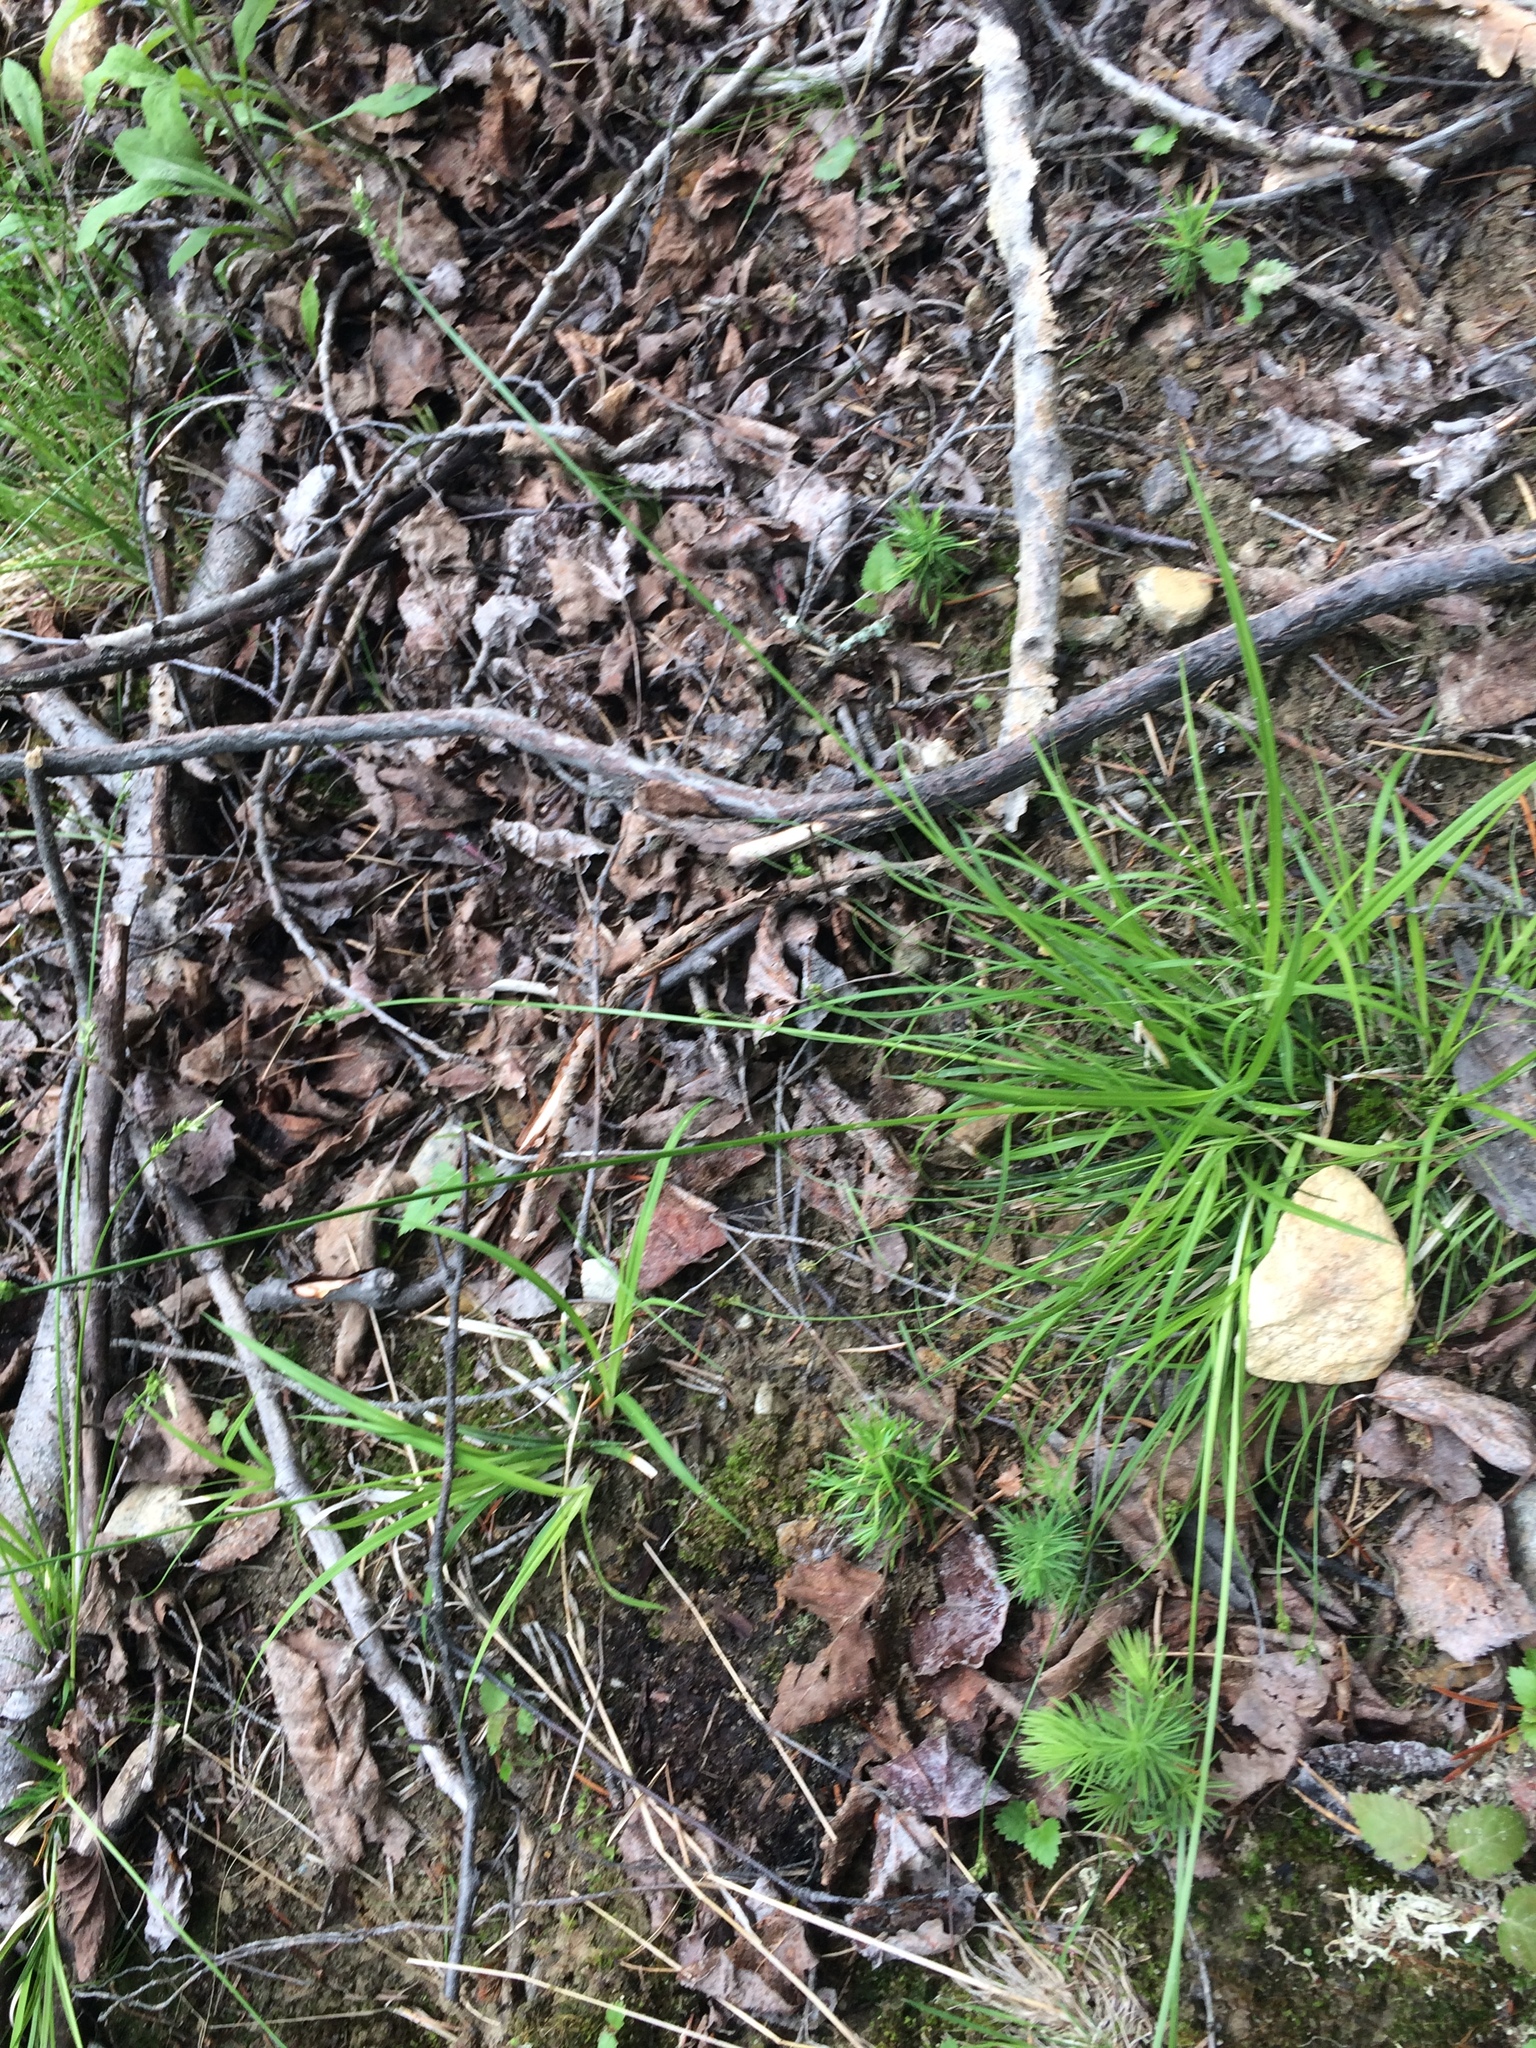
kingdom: Plantae
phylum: Tracheophyta
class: Liliopsida
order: Poales
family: Cyperaceae
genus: Carex
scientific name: Carex communis
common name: Colonial oak sedge
